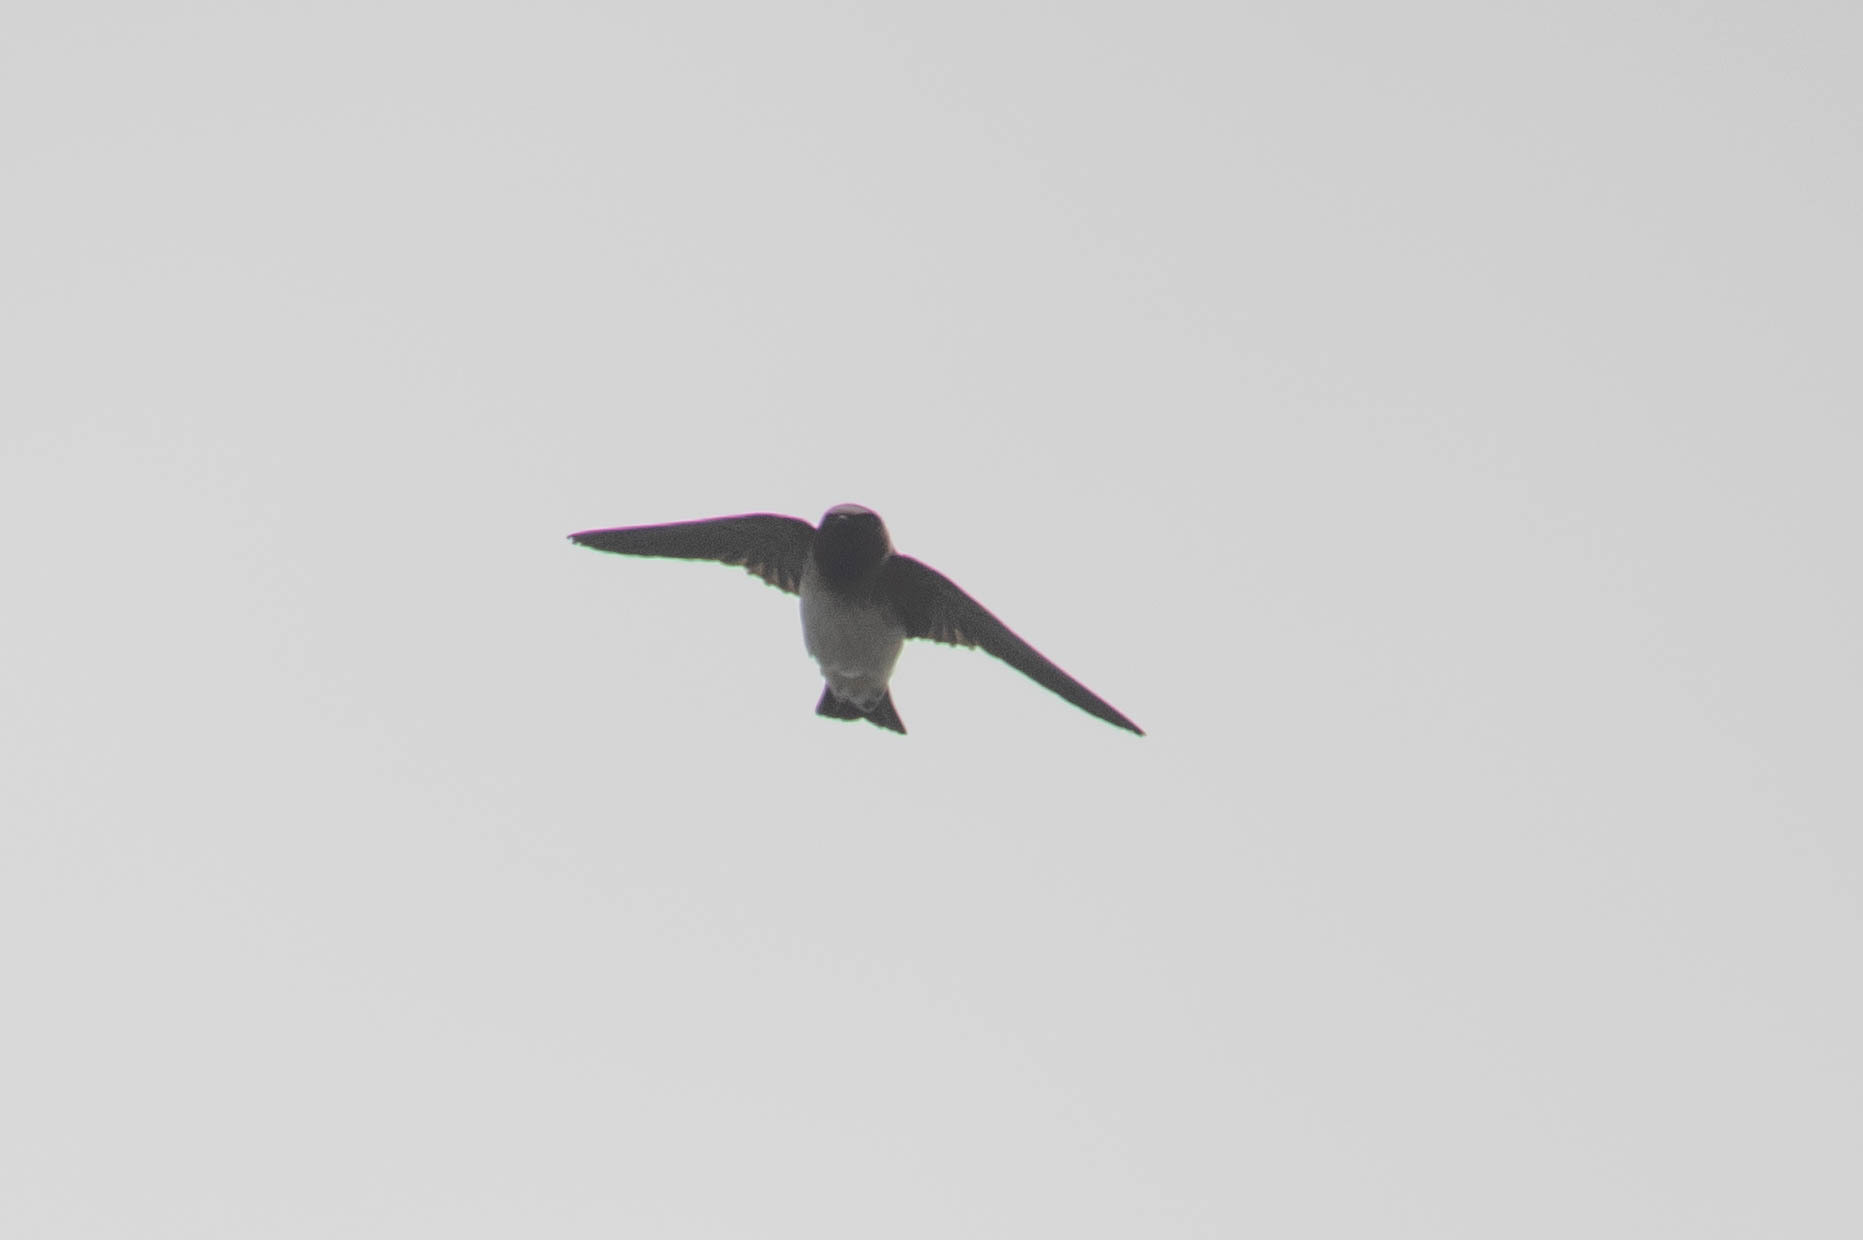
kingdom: Animalia
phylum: Chordata
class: Aves
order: Passeriformes
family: Hirundinidae
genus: Petrochelidon
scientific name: Petrochelidon pyrrhonota
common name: American cliff swallow
